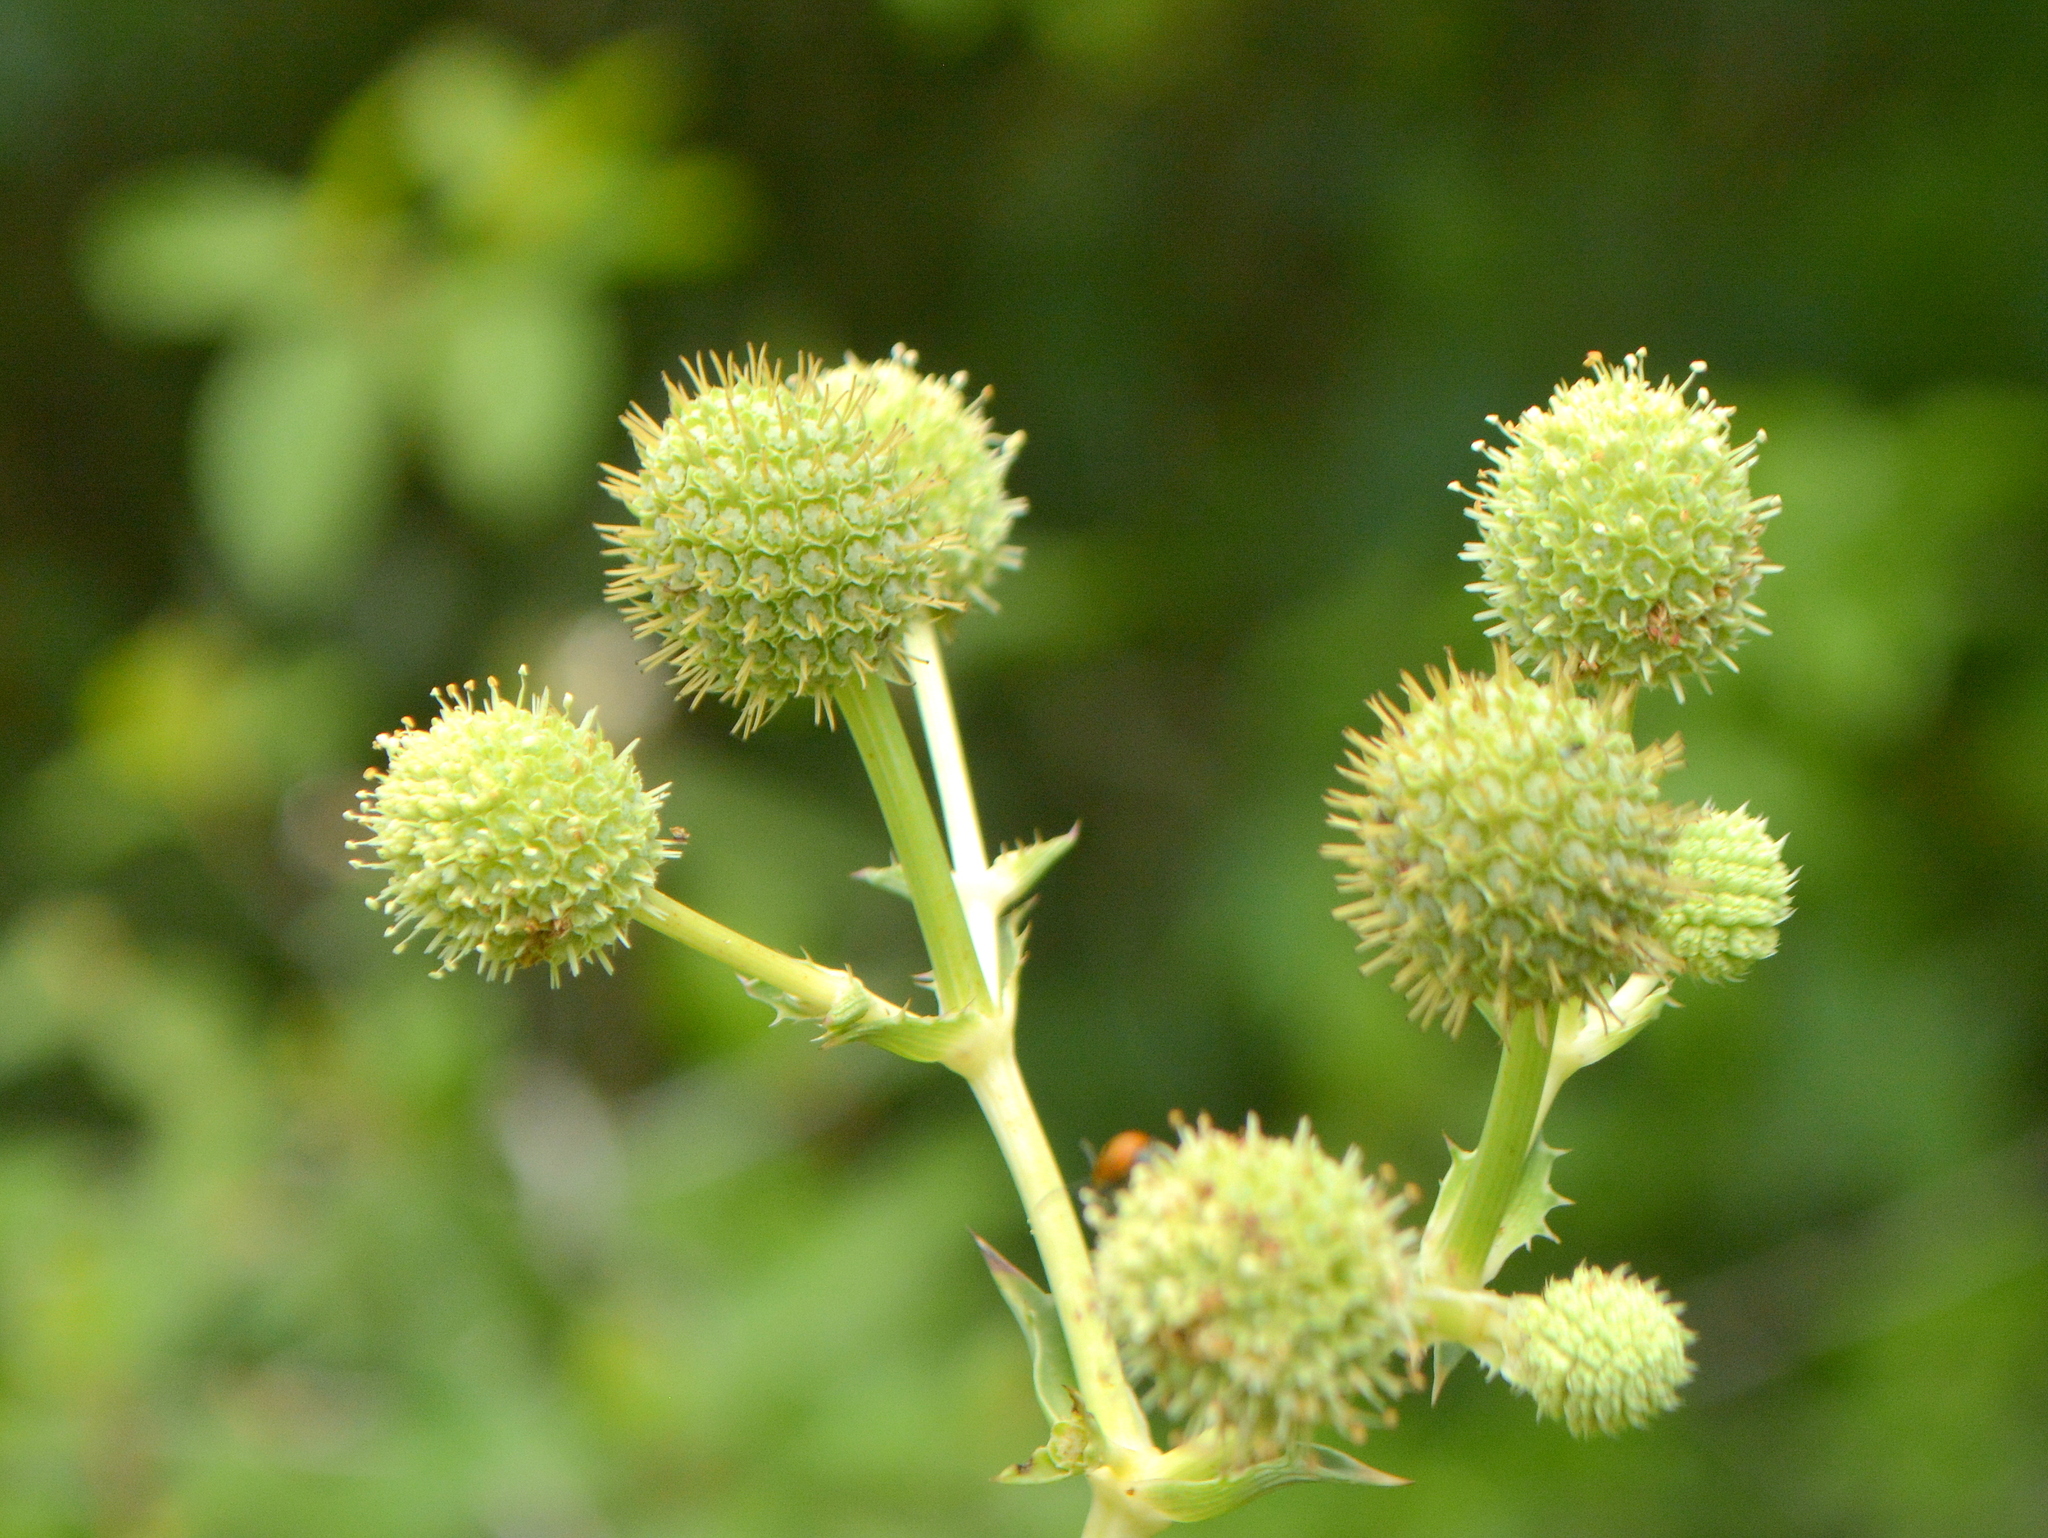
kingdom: Plantae
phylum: Tracheophyta
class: Magnoliopsida
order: Apiales
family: Apiaceae
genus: Eryngium
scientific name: Eryngium horridum
